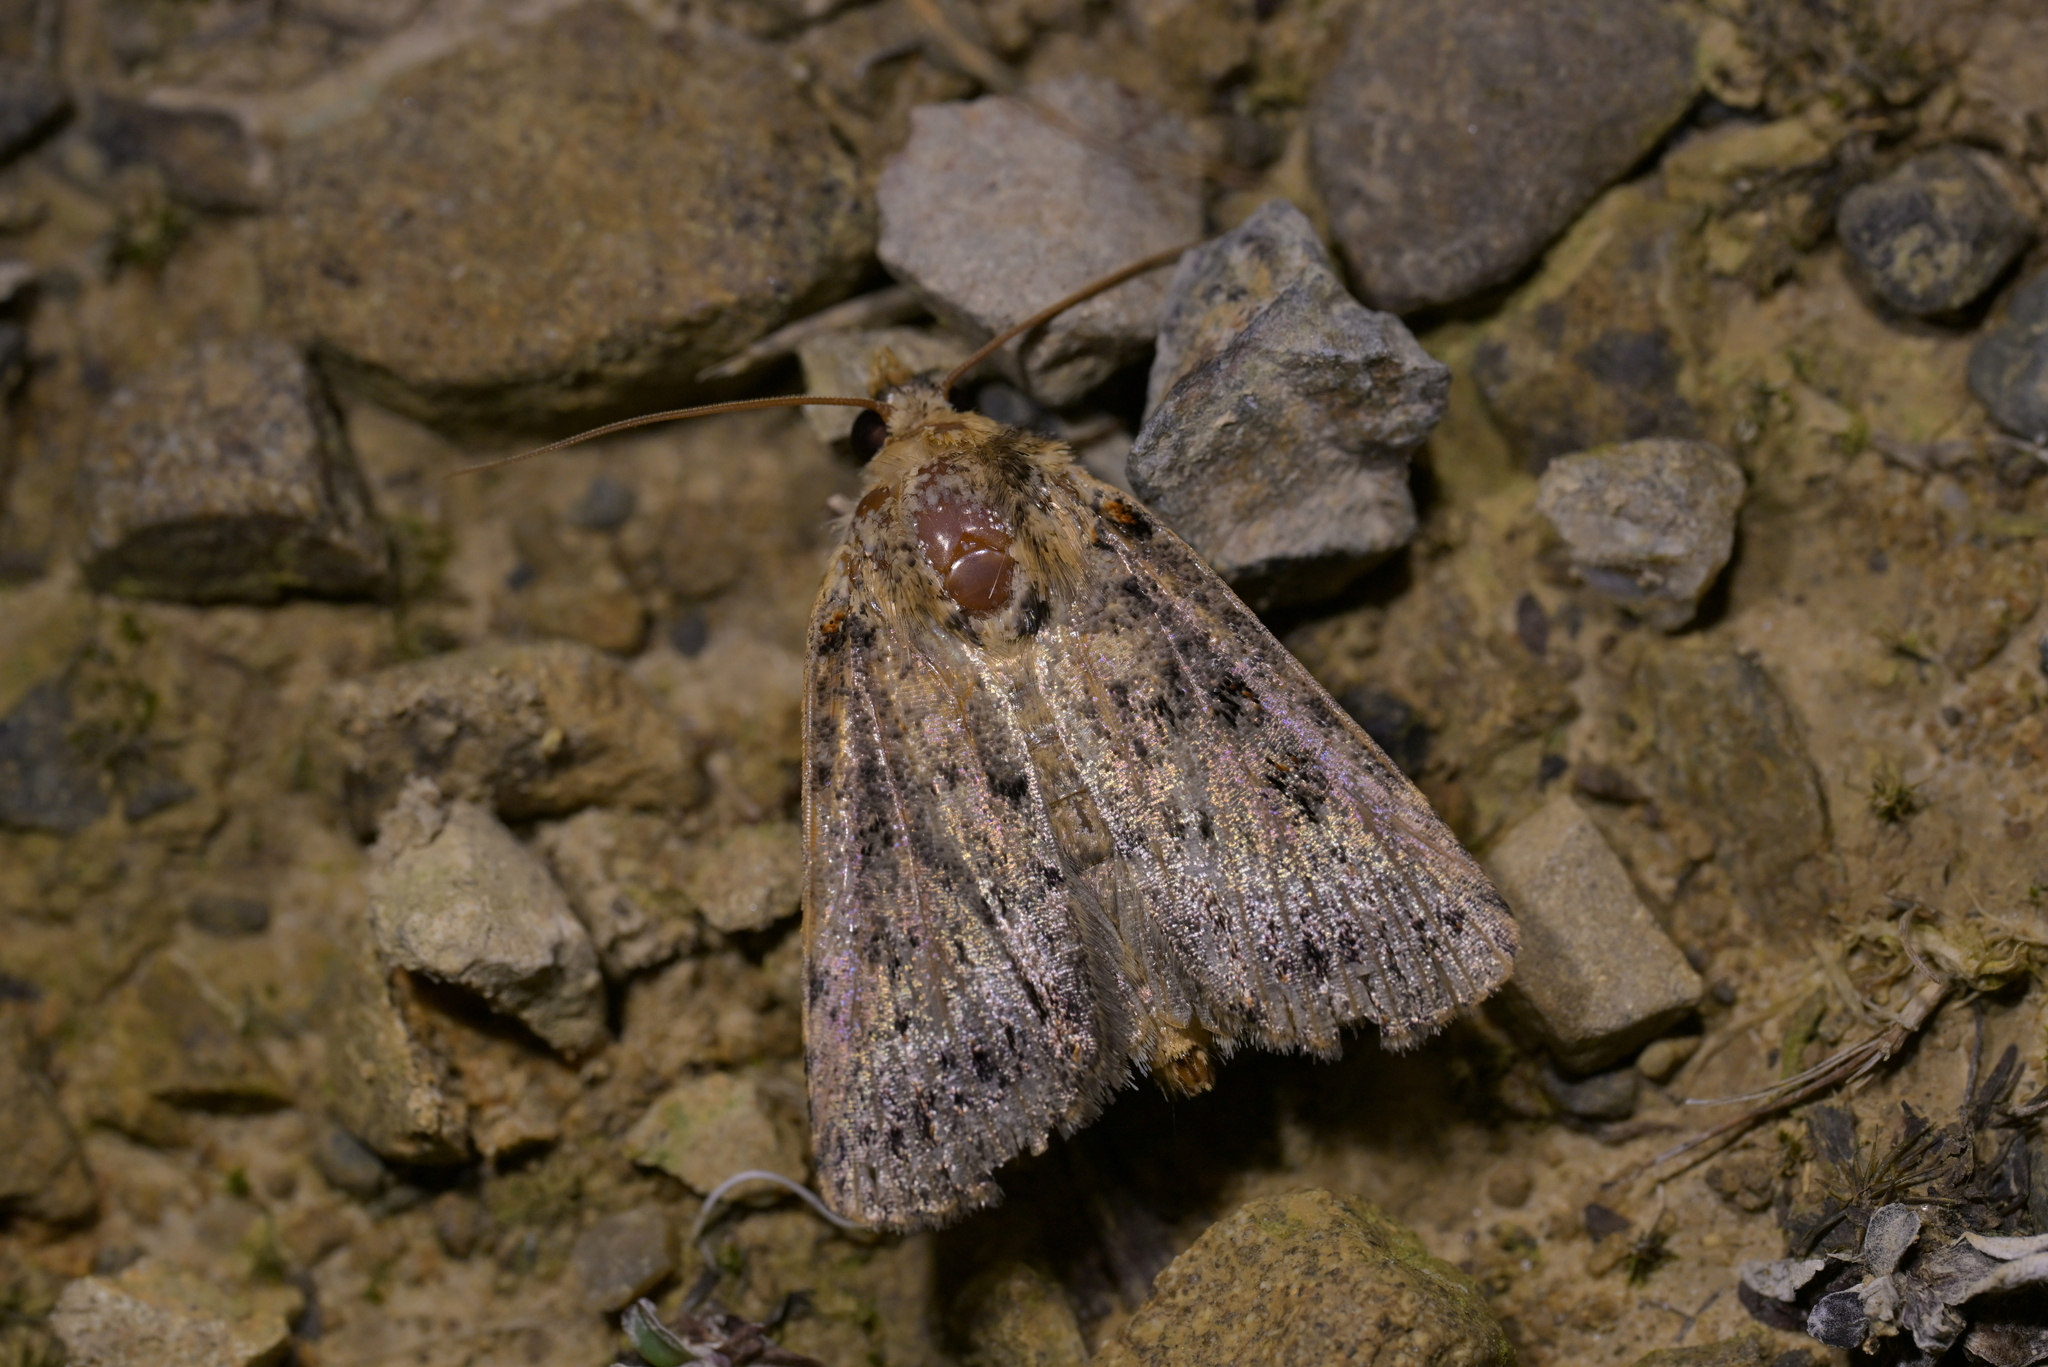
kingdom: Animalia
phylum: Arthropoda
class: Insecta
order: Lepidoptera
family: Noctuidae
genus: Proteuxoa
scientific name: Proteuxoa sanguinipuncta
